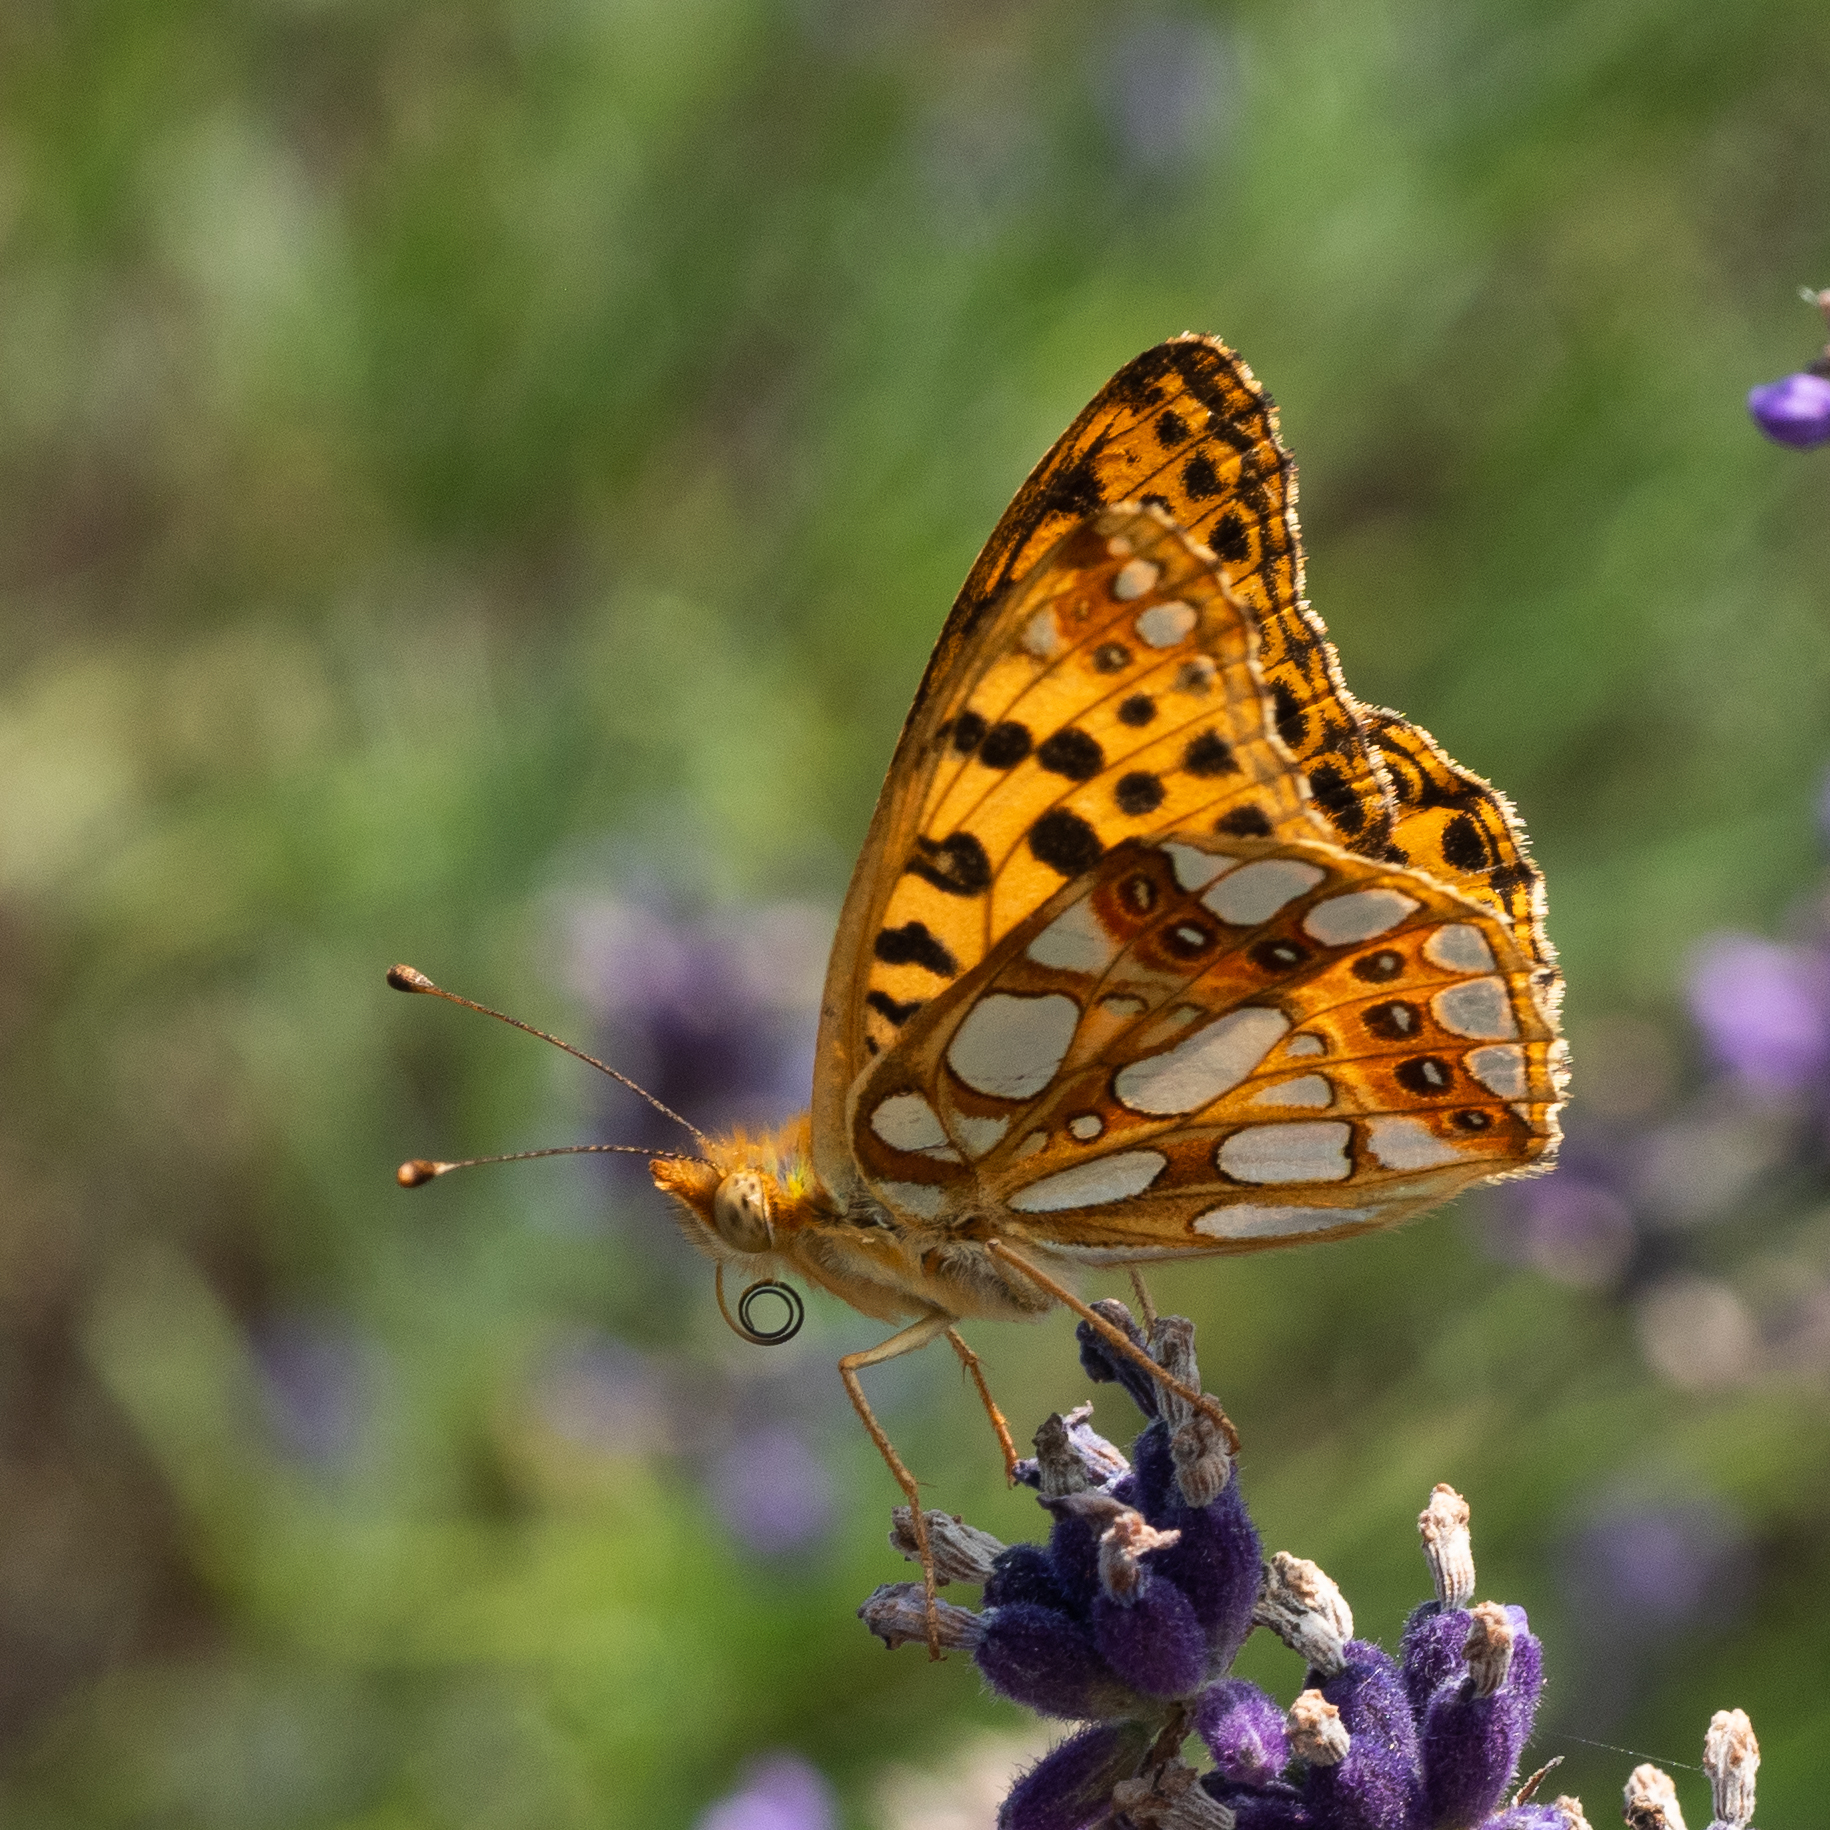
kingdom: Animalia
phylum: Arthropoda
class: Insecta
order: Lepidoptera
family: Nymphalidae
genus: Issoria
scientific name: Issoria lathonia
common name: Queen of spain fritillary
